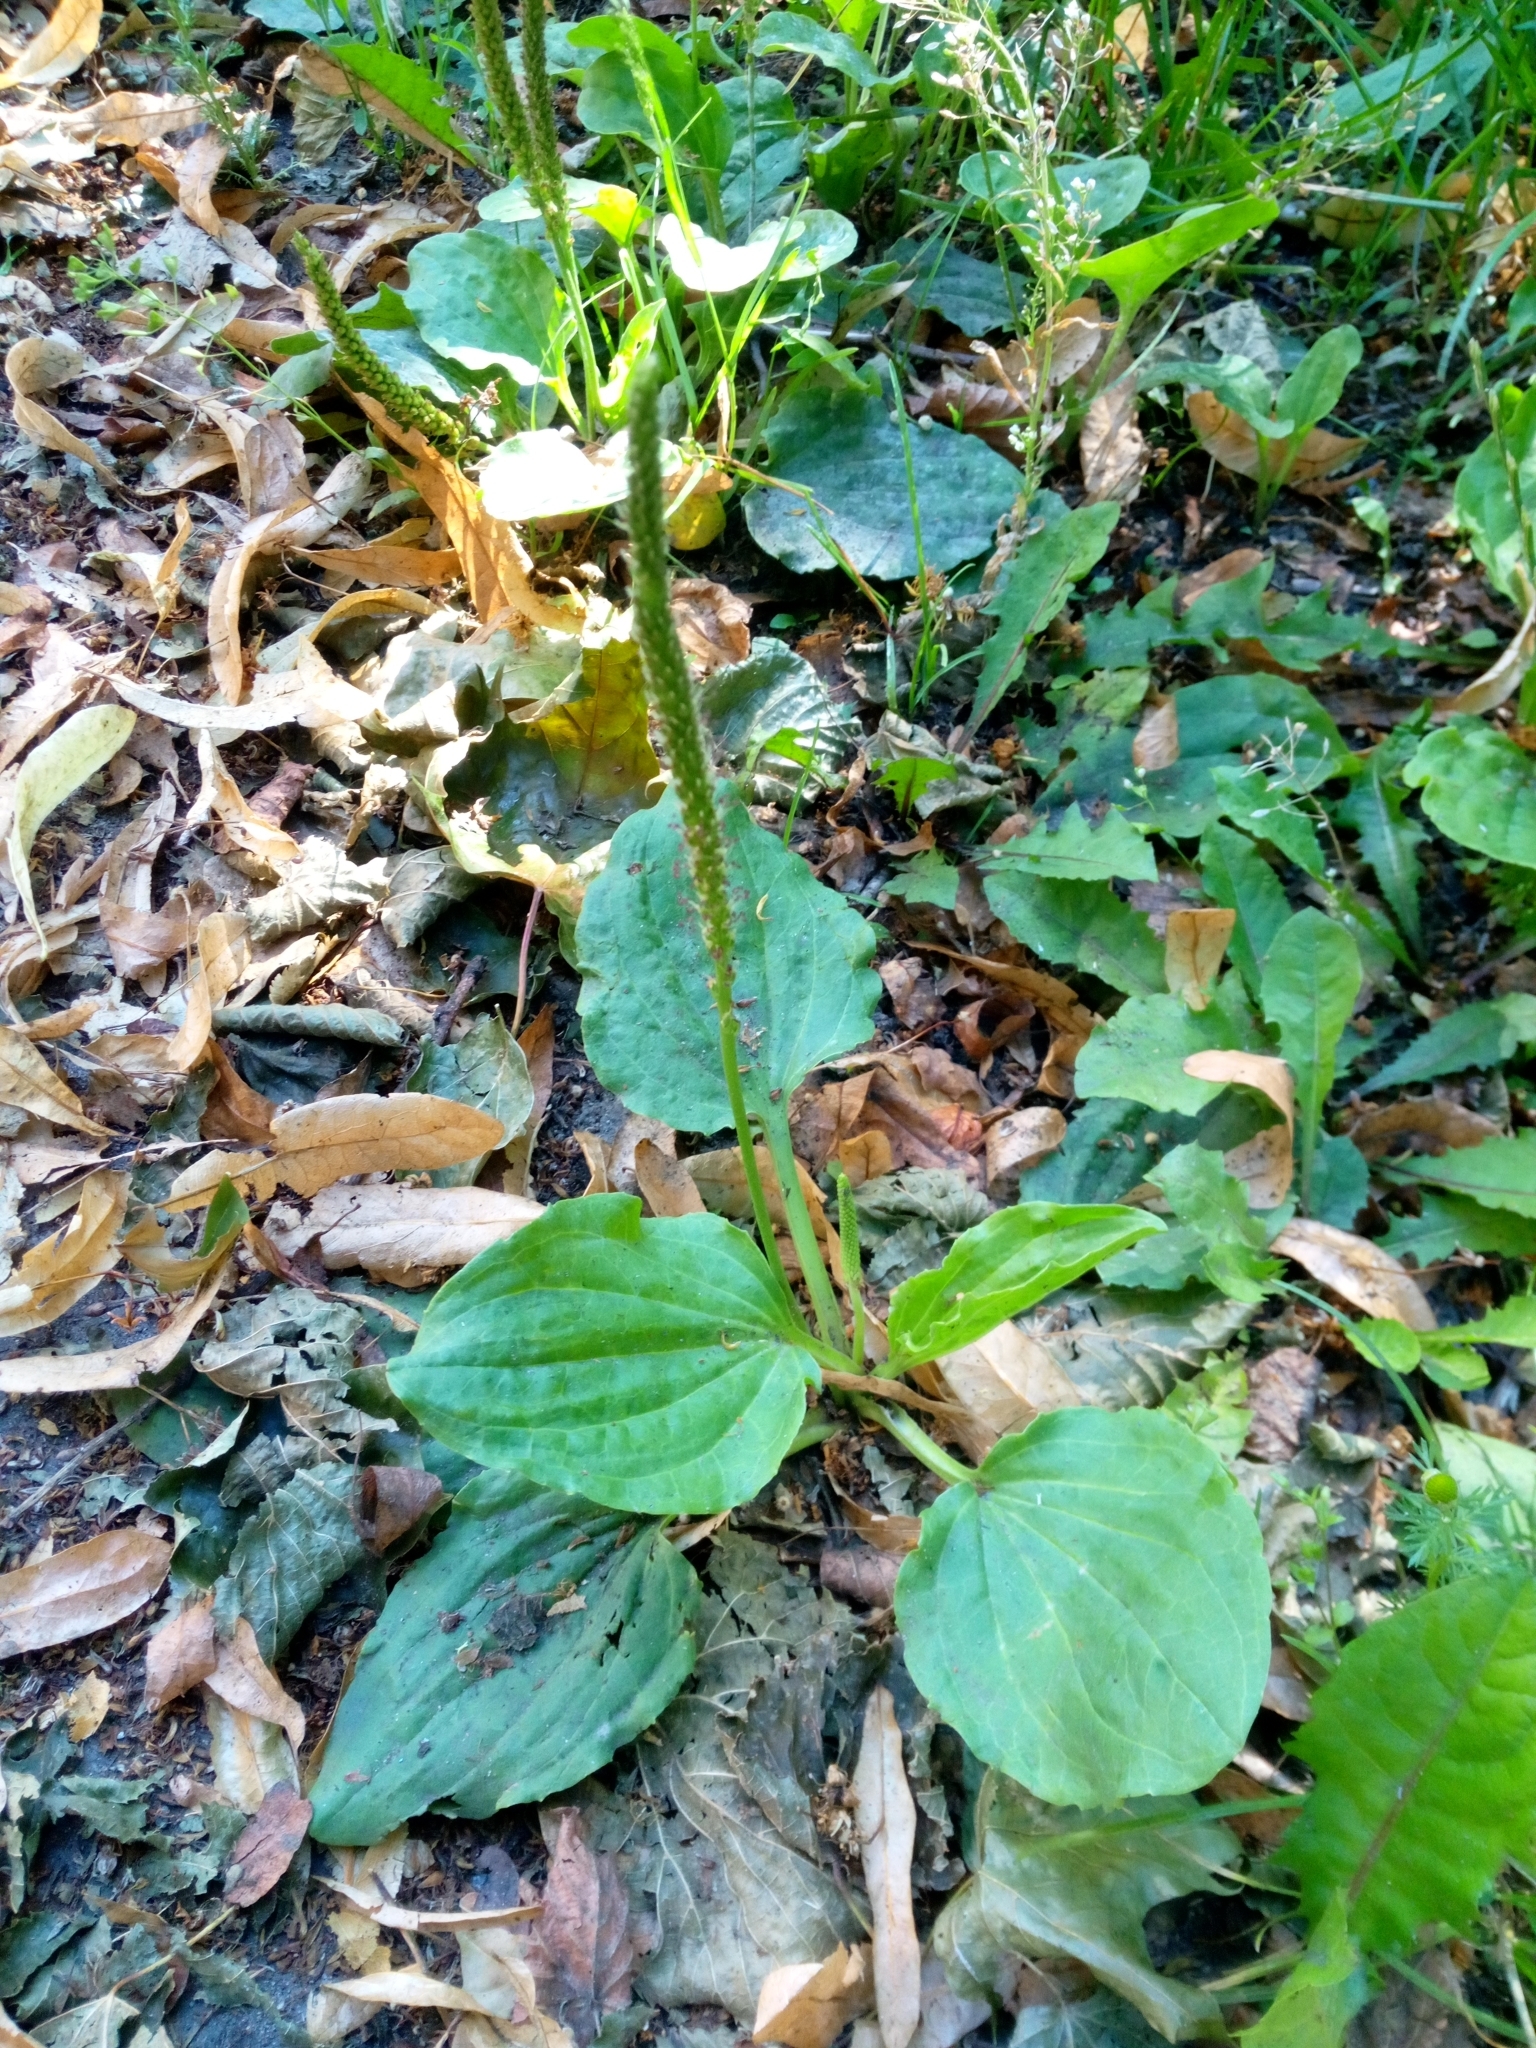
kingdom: Plantae
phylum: Tracheophyta
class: Magnoliopsida
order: Lamiales
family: Plantaginaceae
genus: Plantago
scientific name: Plantago major
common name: Common plantain
